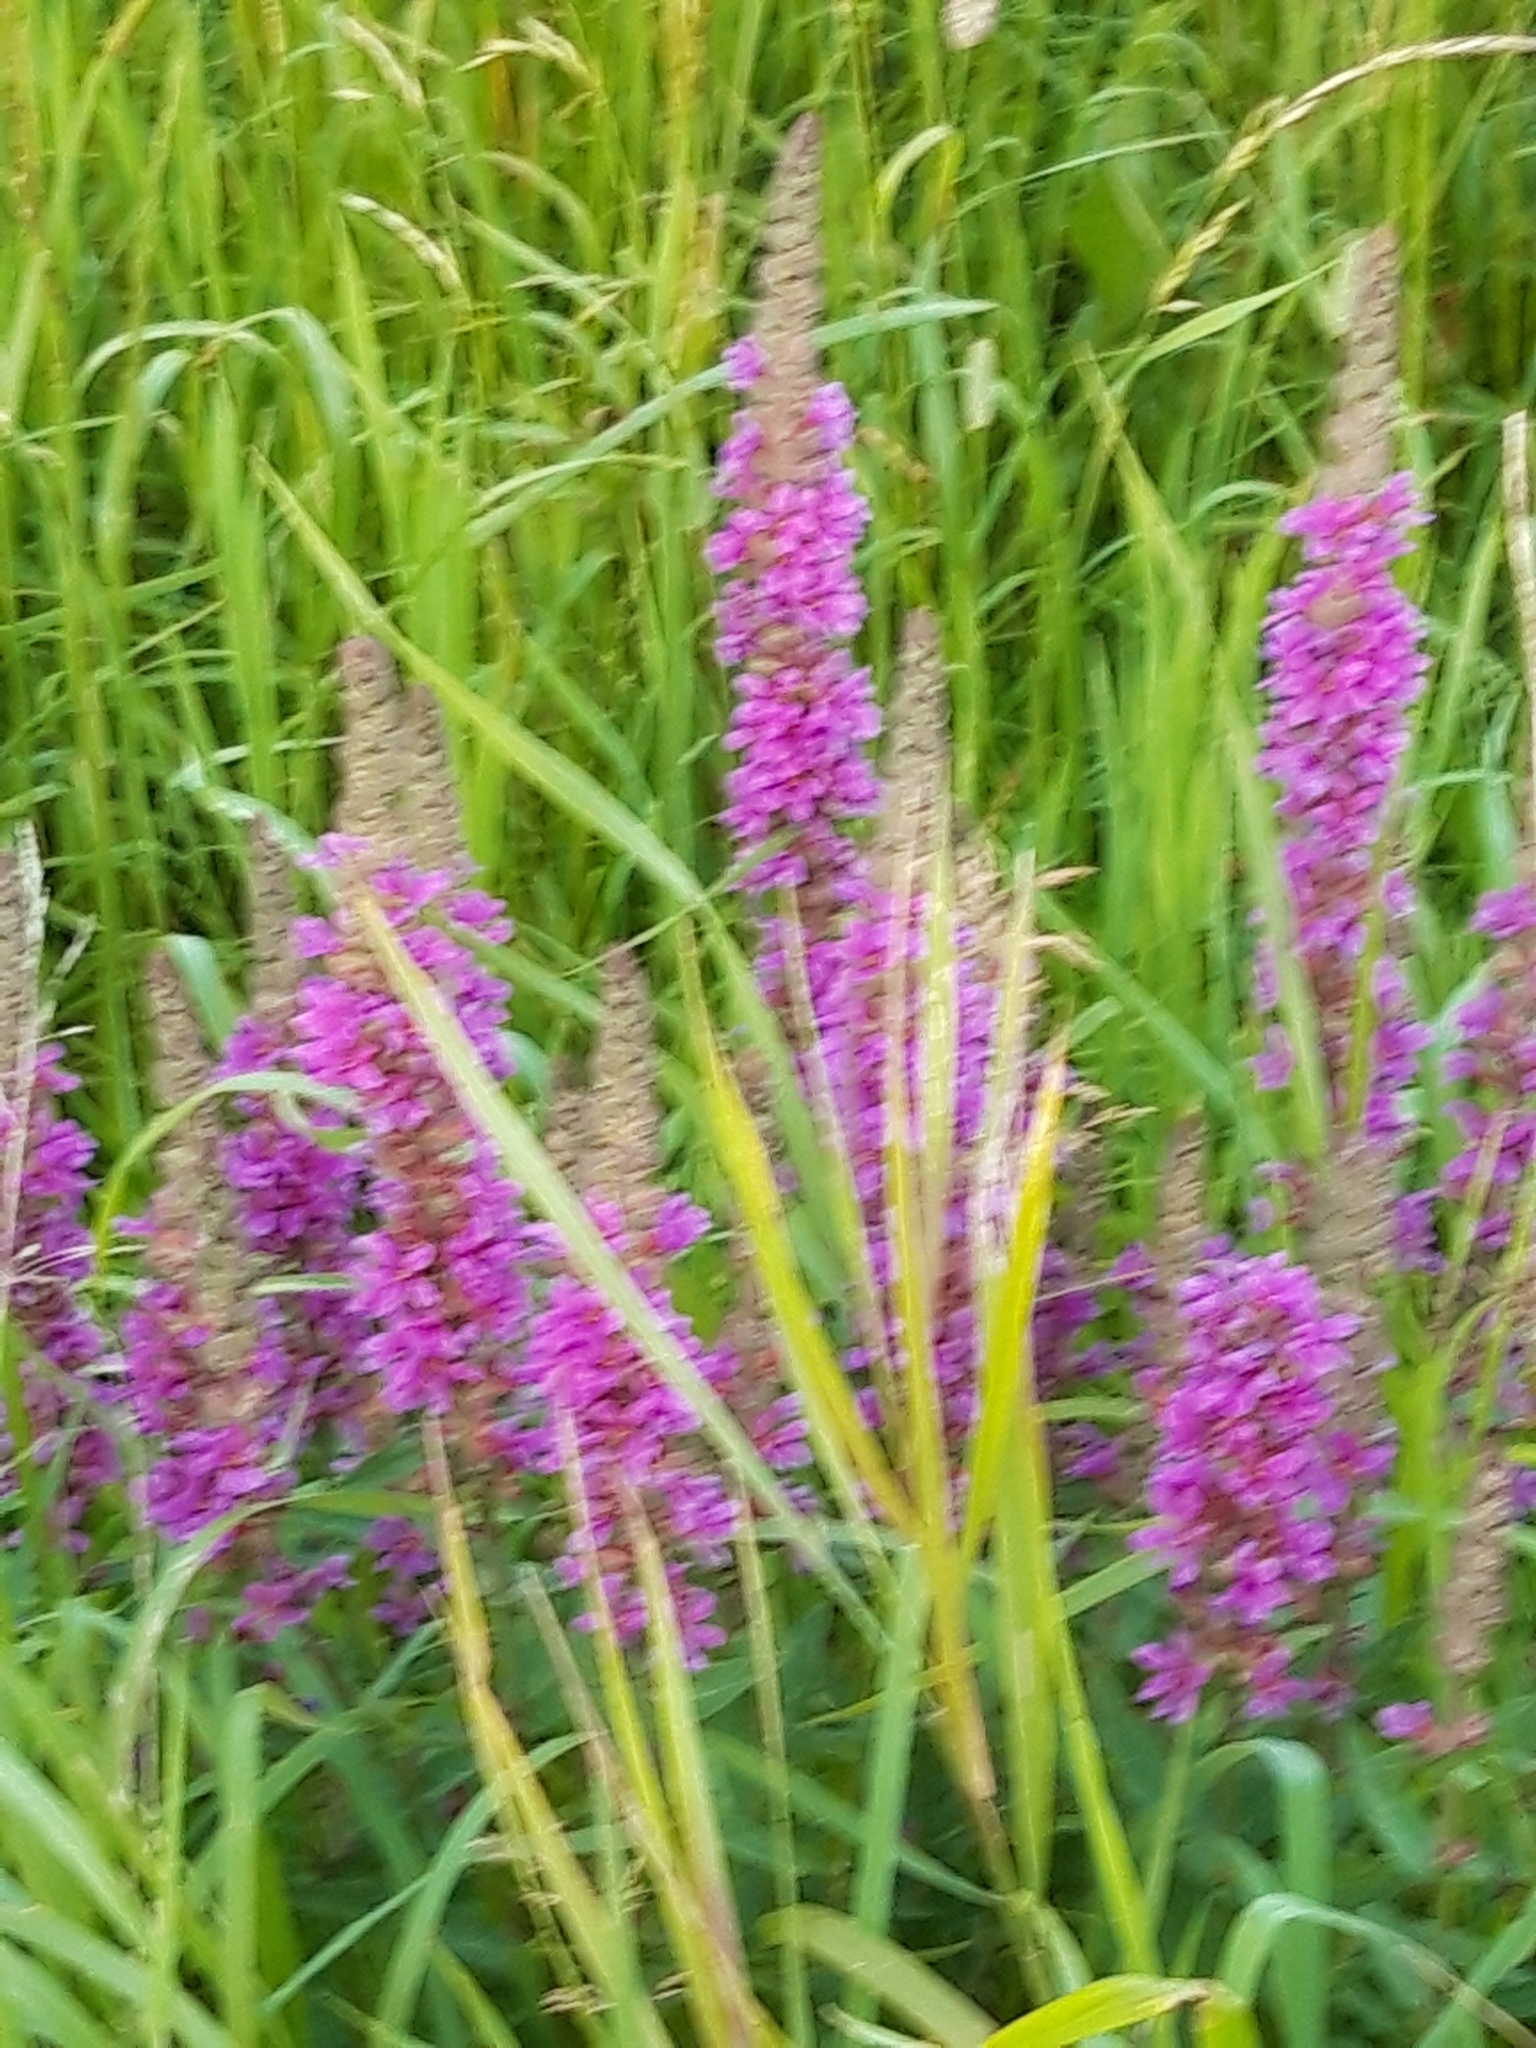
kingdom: Plantae
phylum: Tracheophyta
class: Magnoliopsida
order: Myrtales
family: Lythraceae
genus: Lythrum
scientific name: Lythrum salicaria
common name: Purple loosestrife
